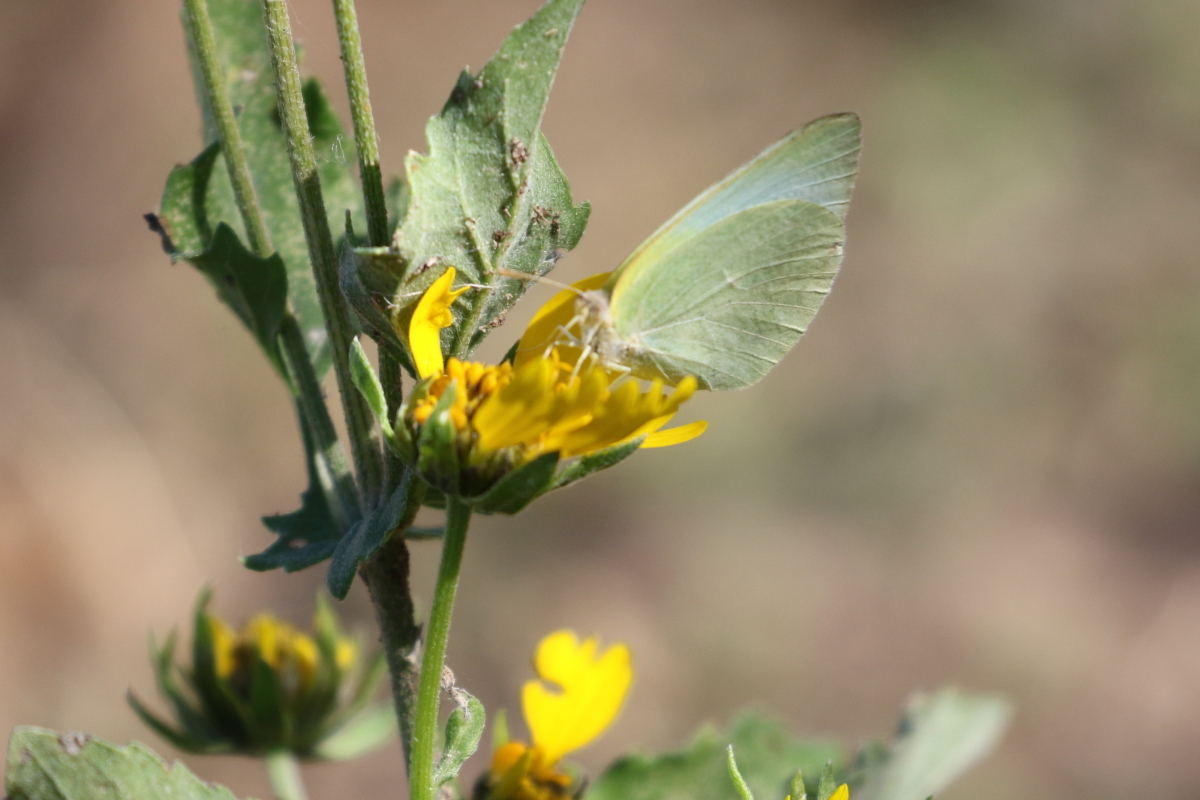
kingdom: Animalia
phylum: Arthropoda
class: Insecta
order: Lepidoptera
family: Pieridae
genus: Kricogonia
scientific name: Kricogonia lyside
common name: Guayacan sulphur,
